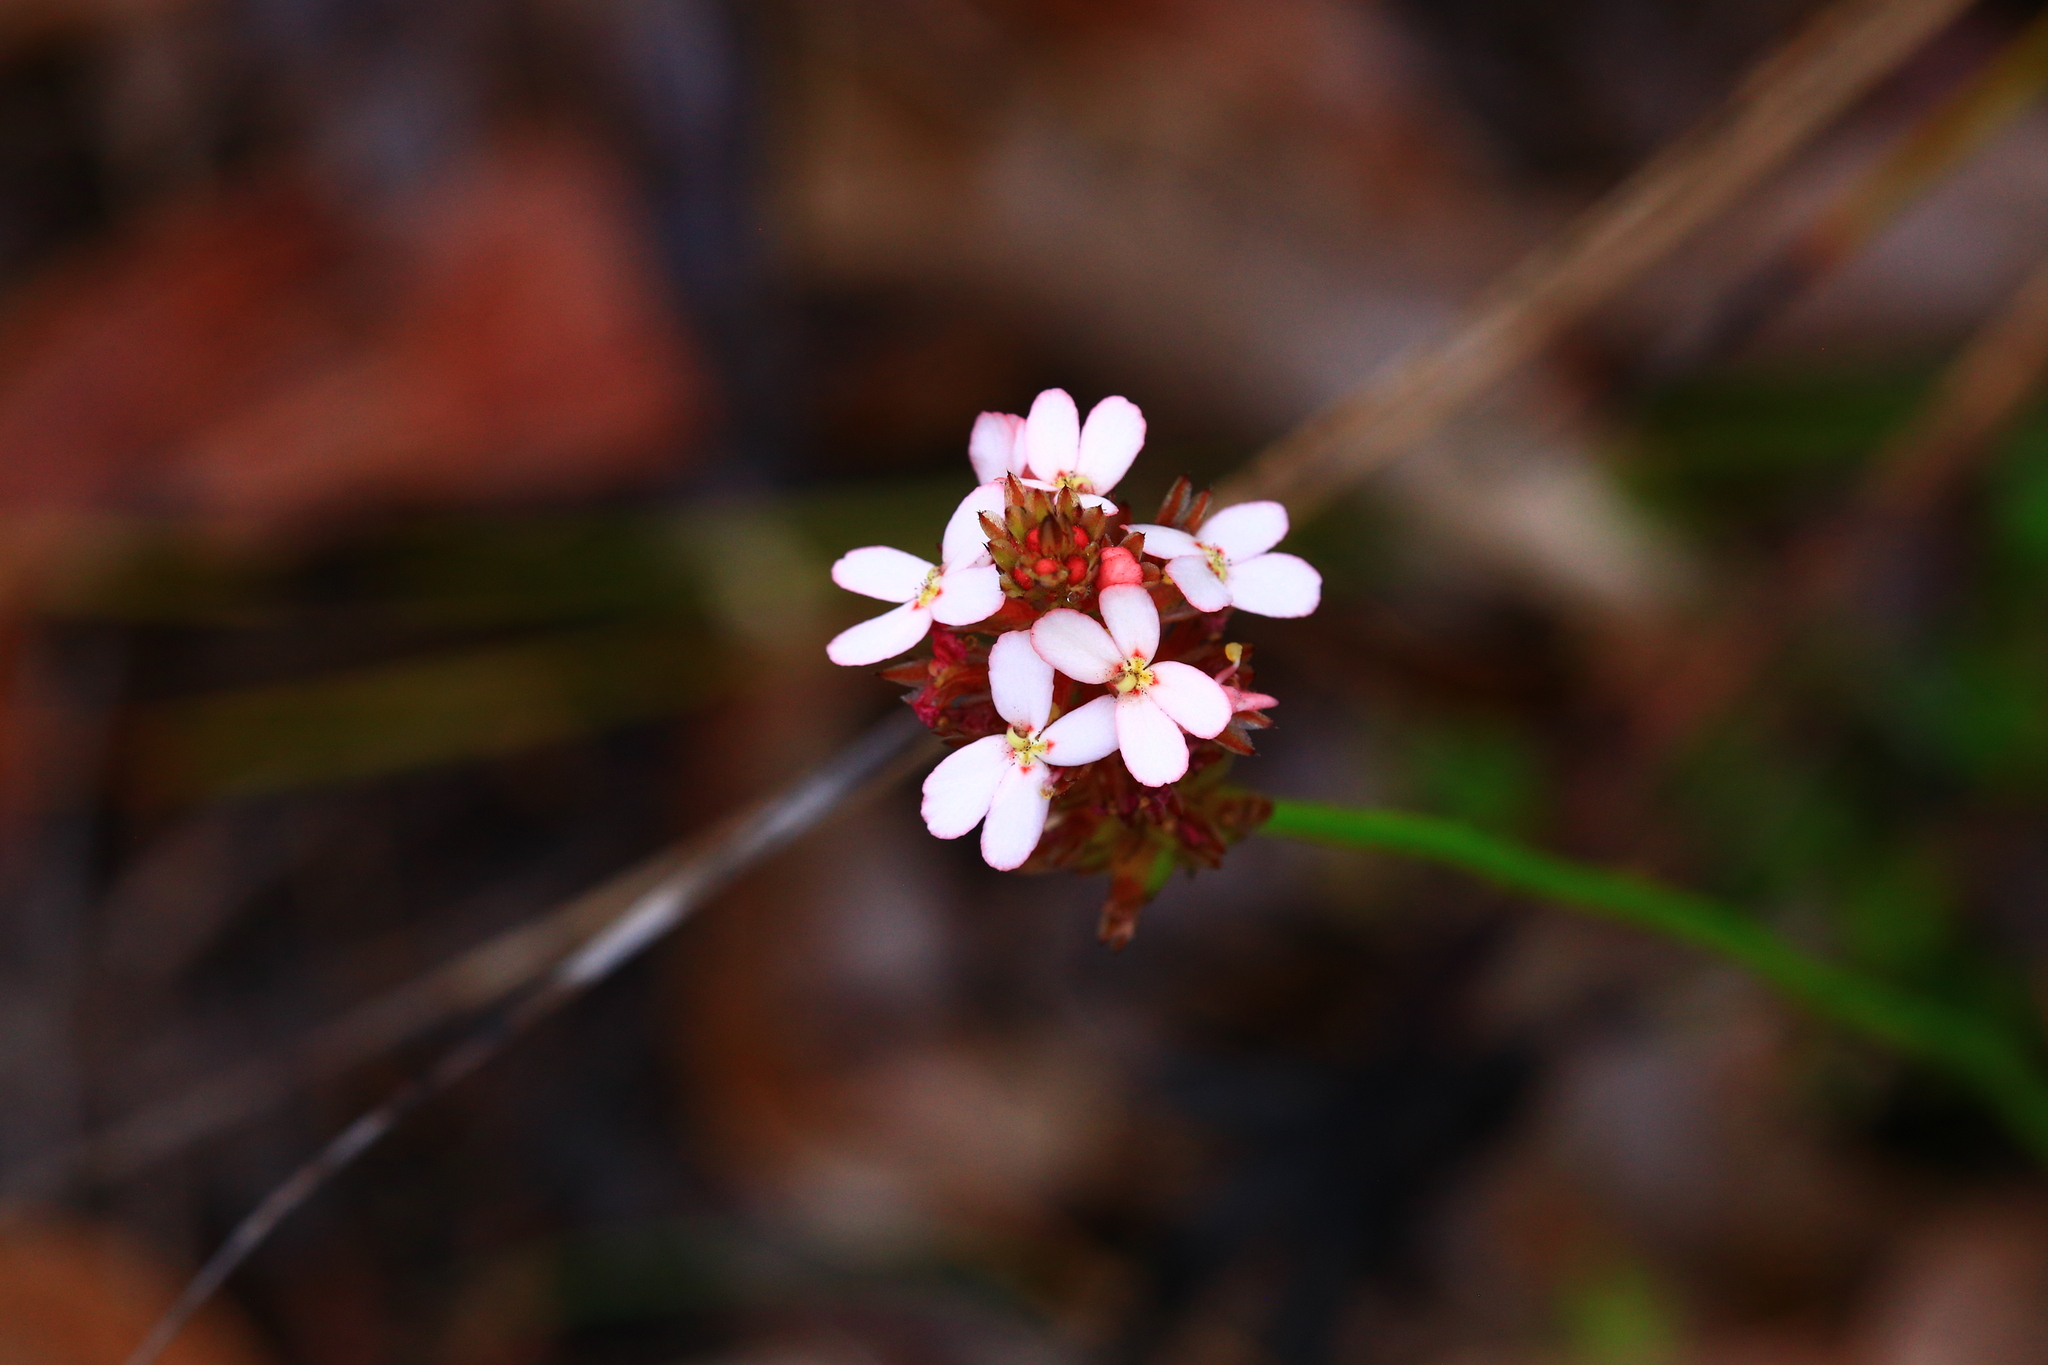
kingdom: Plantae
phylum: Tracheophyta
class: Magnoliopsida
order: Asterales
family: Stylidiaceae
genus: Stylidium
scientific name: Stylidium scariosum
